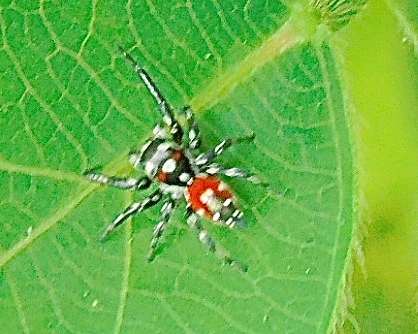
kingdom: Animalia
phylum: Arthropoda
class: Arachnida
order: Araneae
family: Salticidae
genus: Nycerella
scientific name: Nycerella
